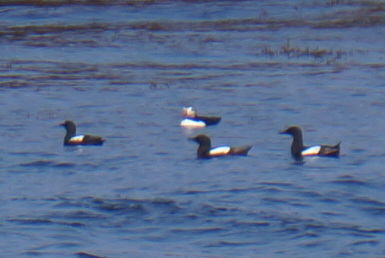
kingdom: Animalia
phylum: Chordata
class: Aves
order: Charadriiformes
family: Alcidae
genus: Cepphus
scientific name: Cepphus grylle
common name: Black guillemot
